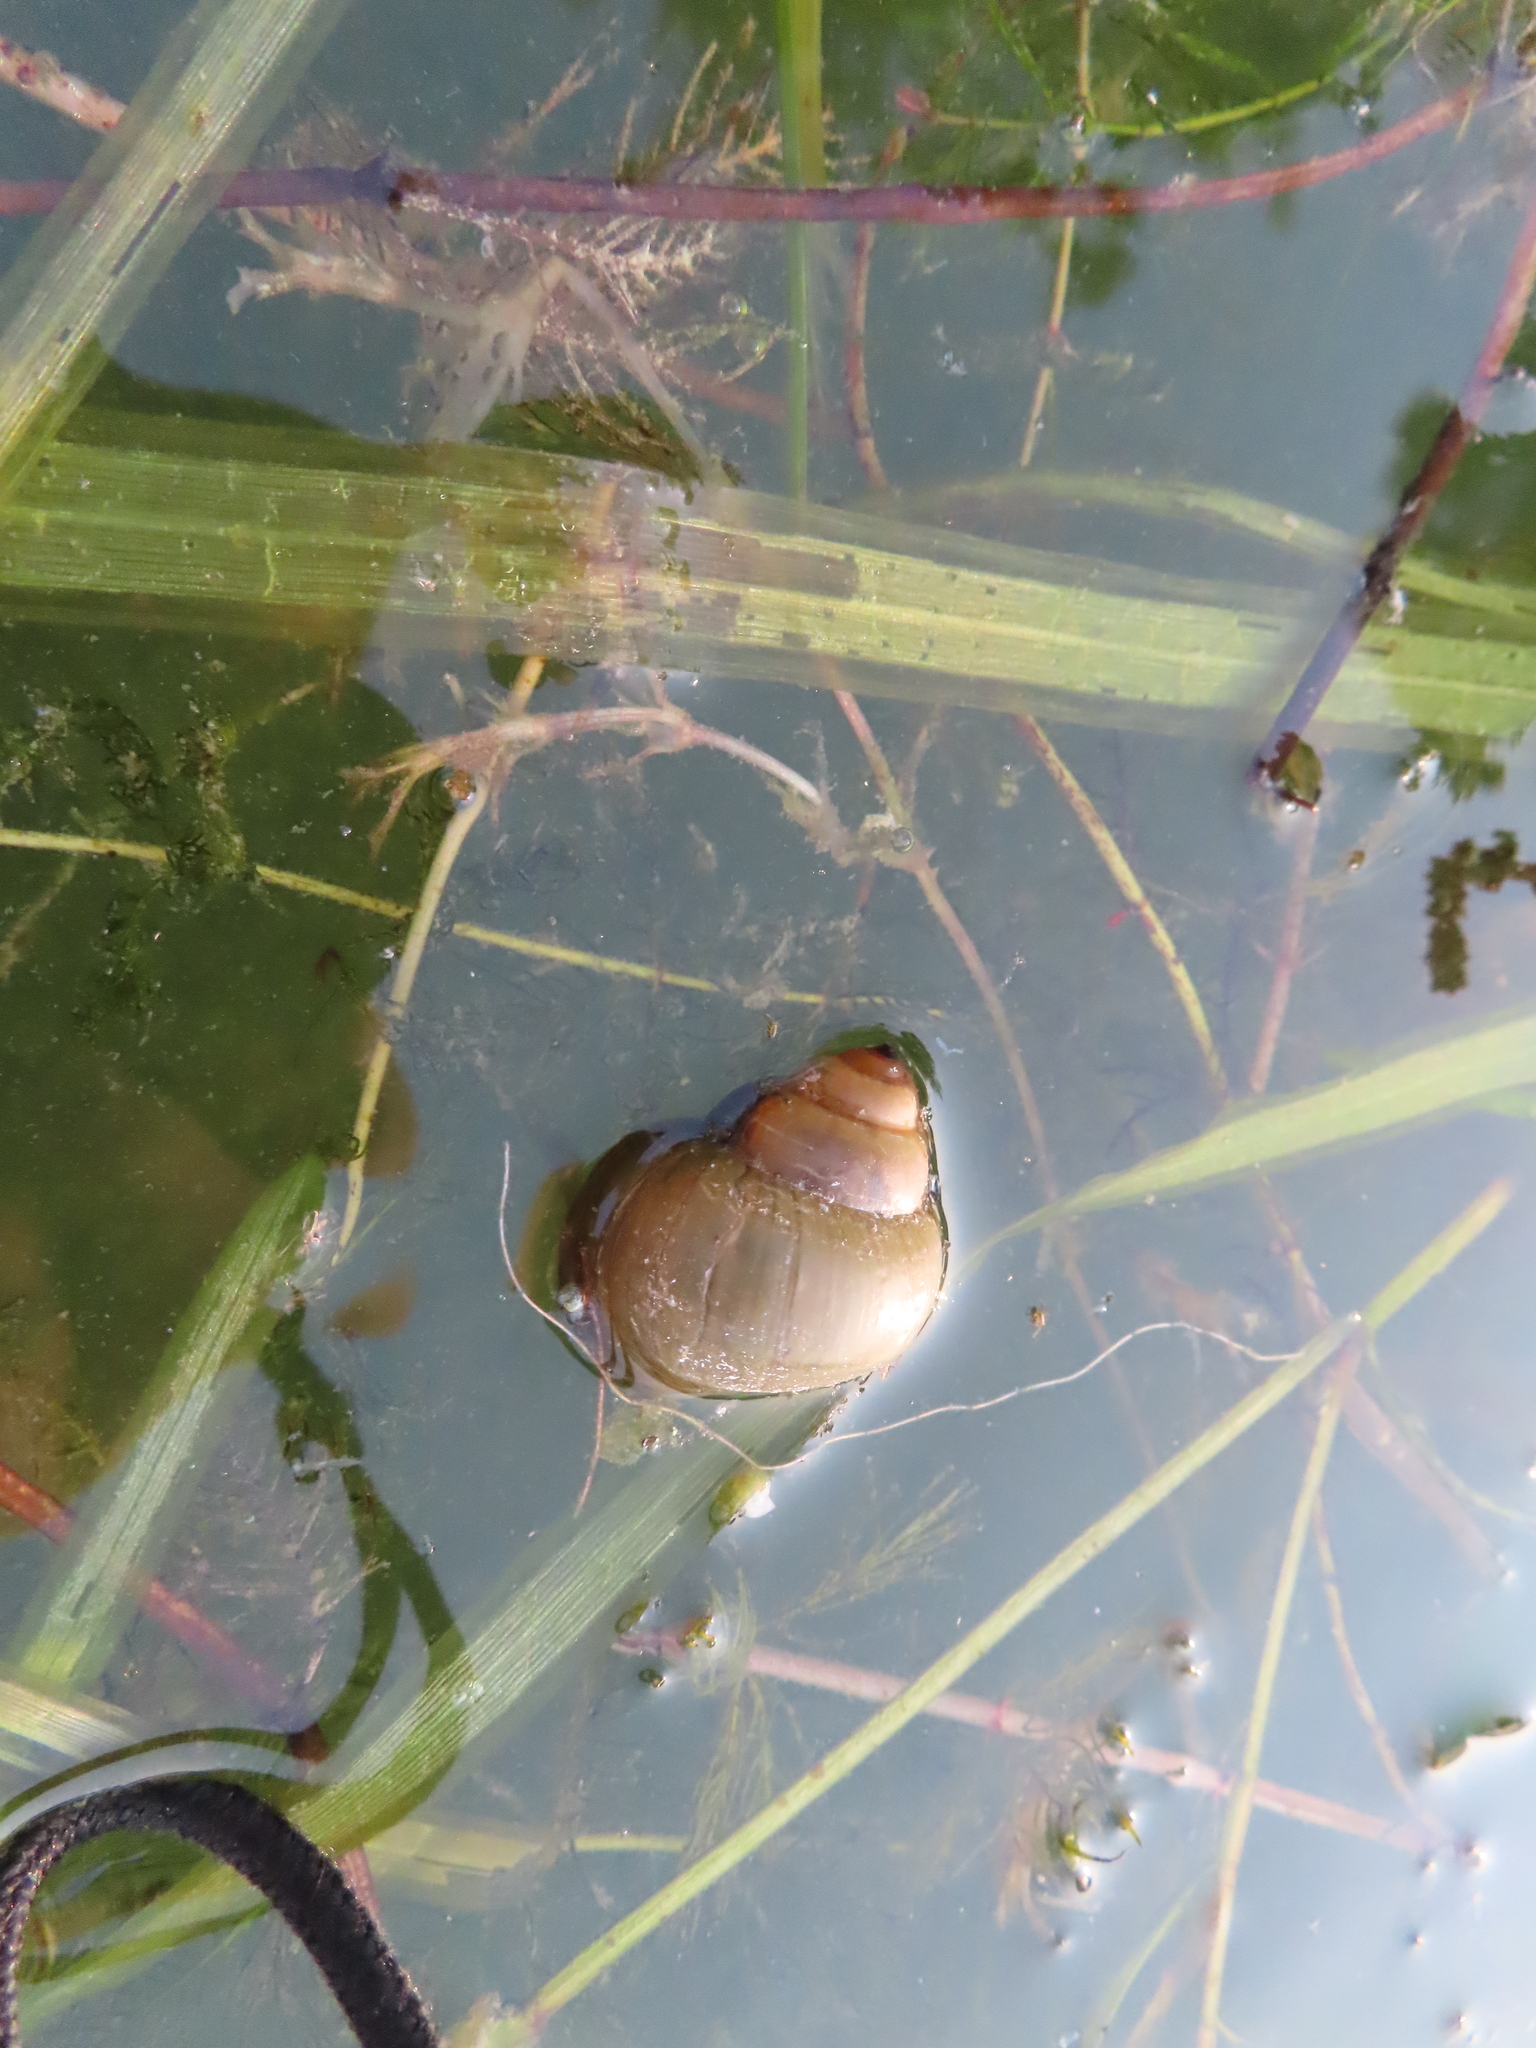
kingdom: Animalia
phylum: Mollusca
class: Gastropoda
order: Architaenioglossa
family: Viviparidae
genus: Cipangopaludina
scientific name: Cipangopaludina chinensis
